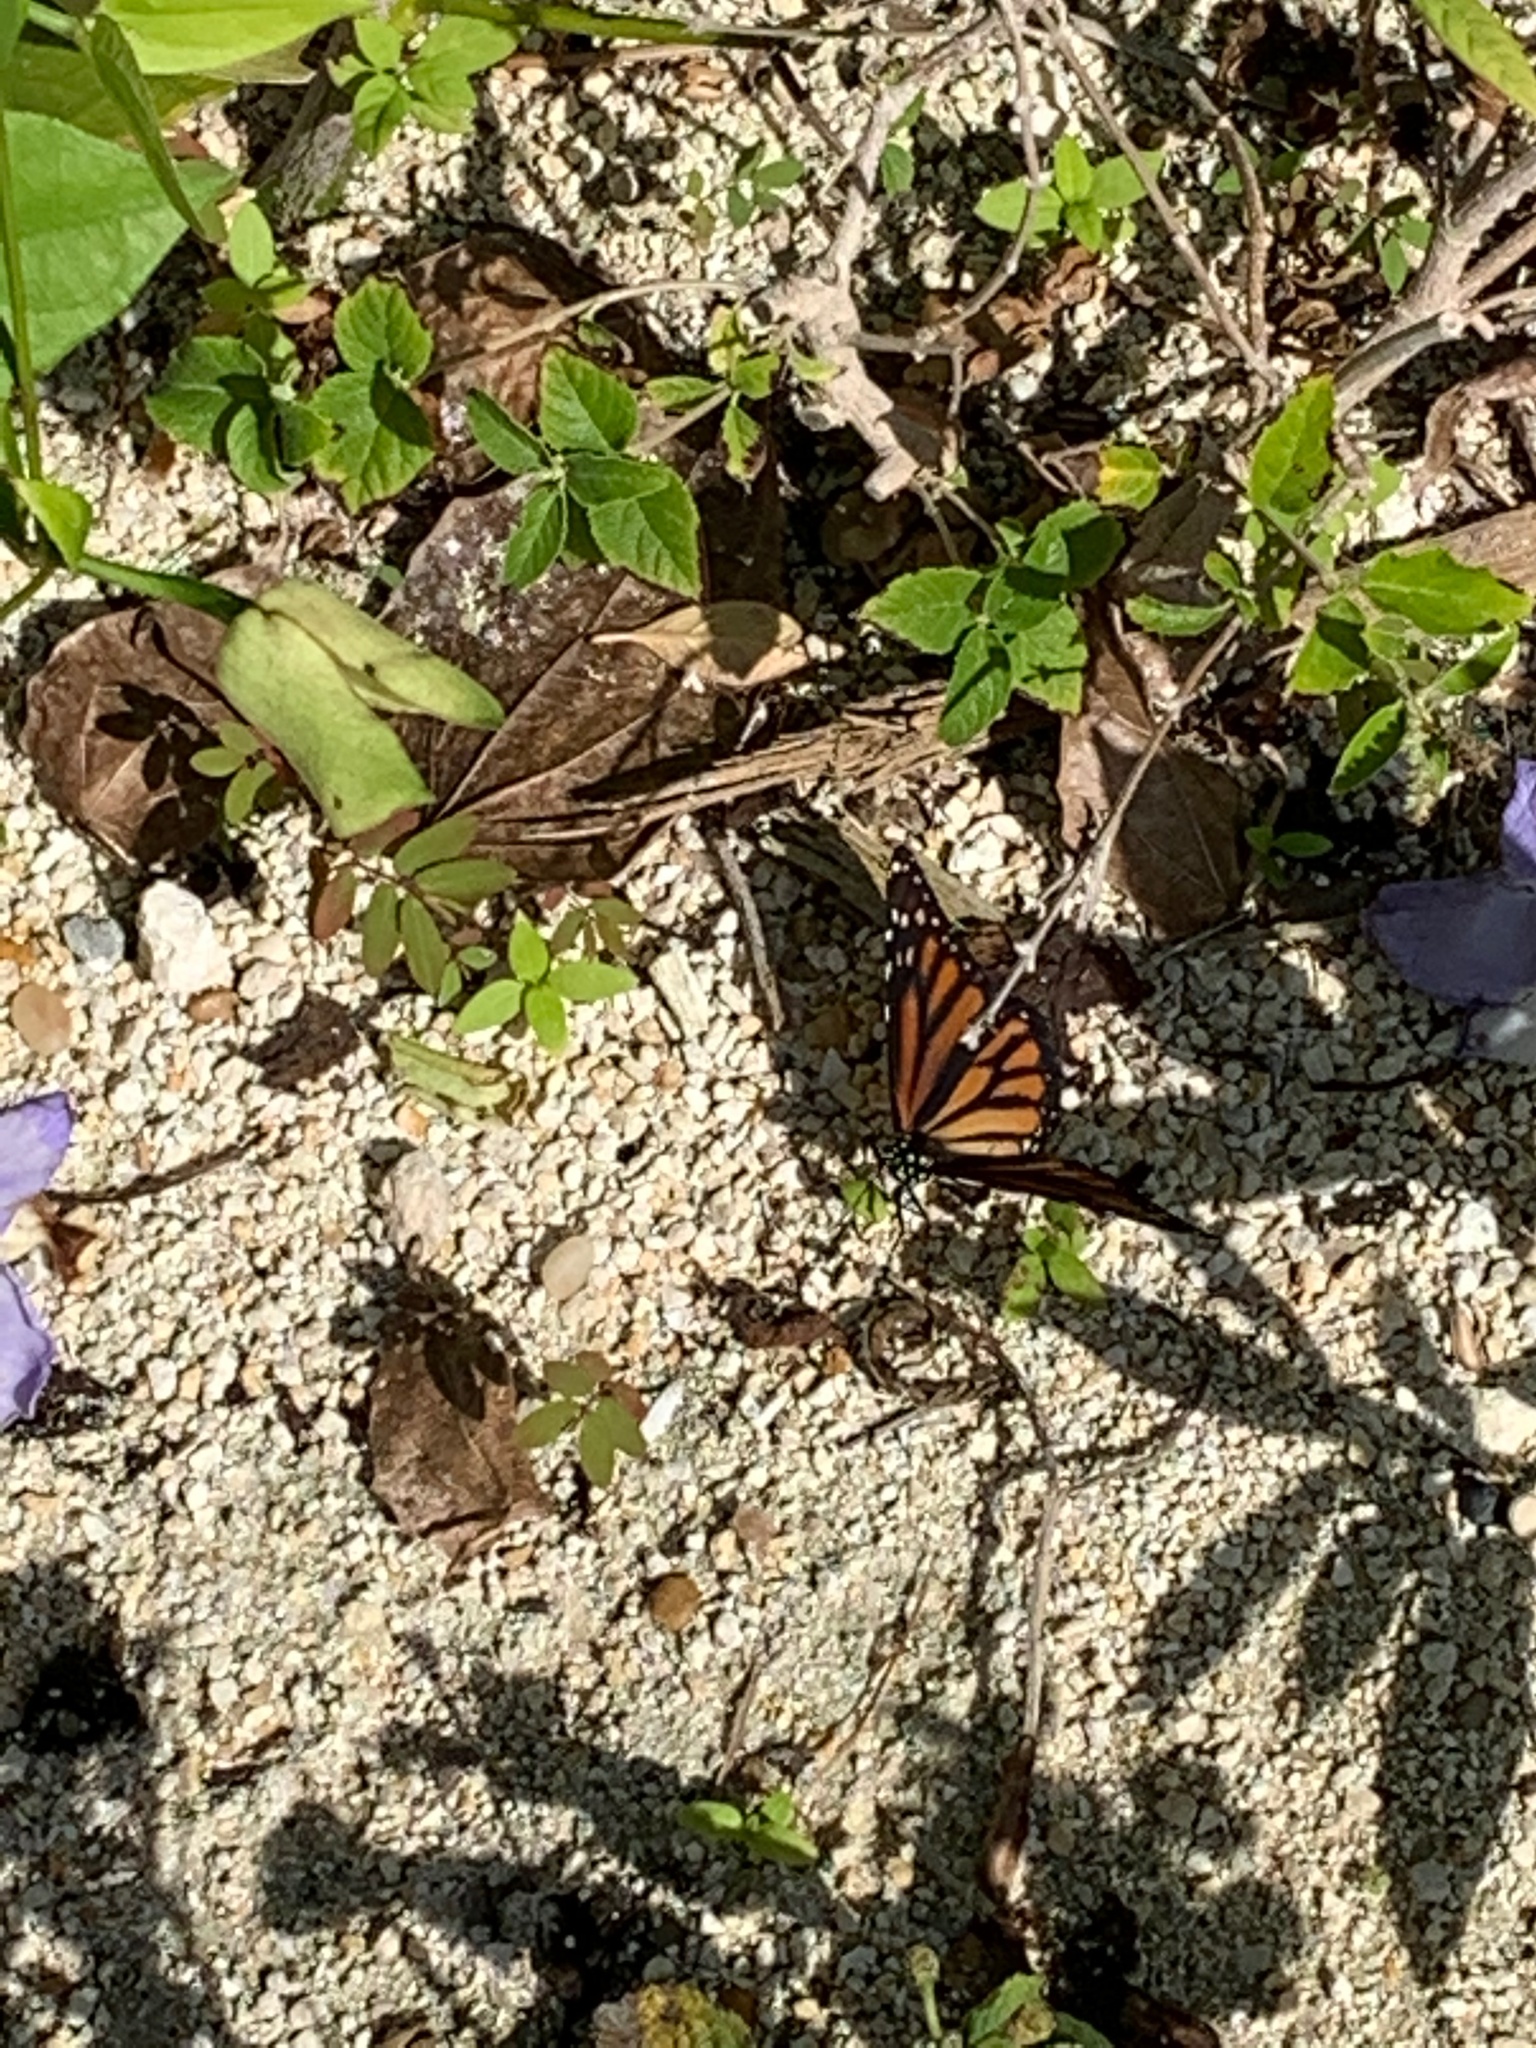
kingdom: Animalia
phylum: Arthropoda
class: Insecta
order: Lepidoptera
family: Nymphalidae
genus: Danaus
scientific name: Danaus plexippus
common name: Monarch
